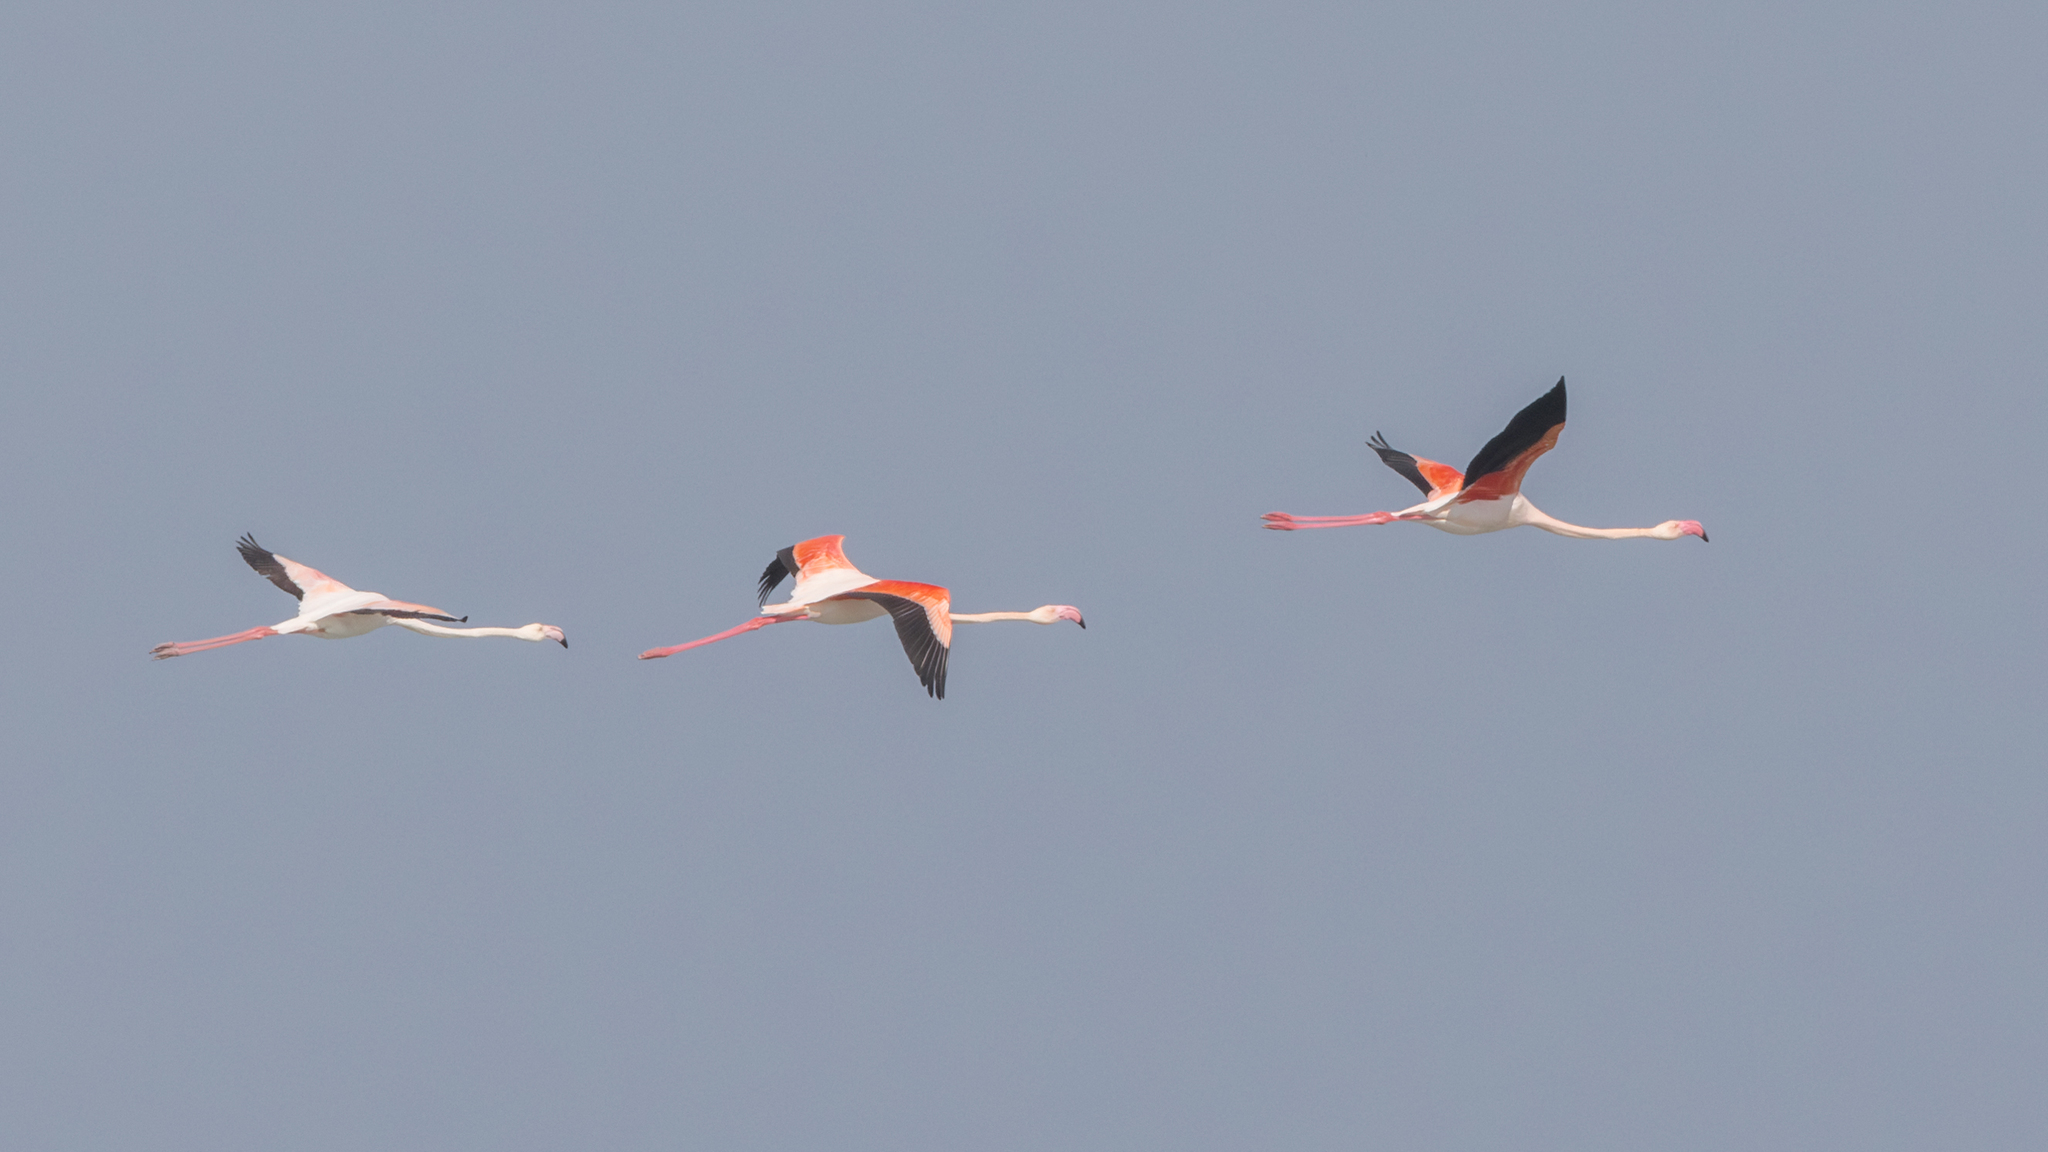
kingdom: Animalia
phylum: Chordata
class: Aves
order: Phoenicopteriformes
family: Phoenicopteridae
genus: Phoenicopterus
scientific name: Phoenicopterus roseus
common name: Greater flamingo
